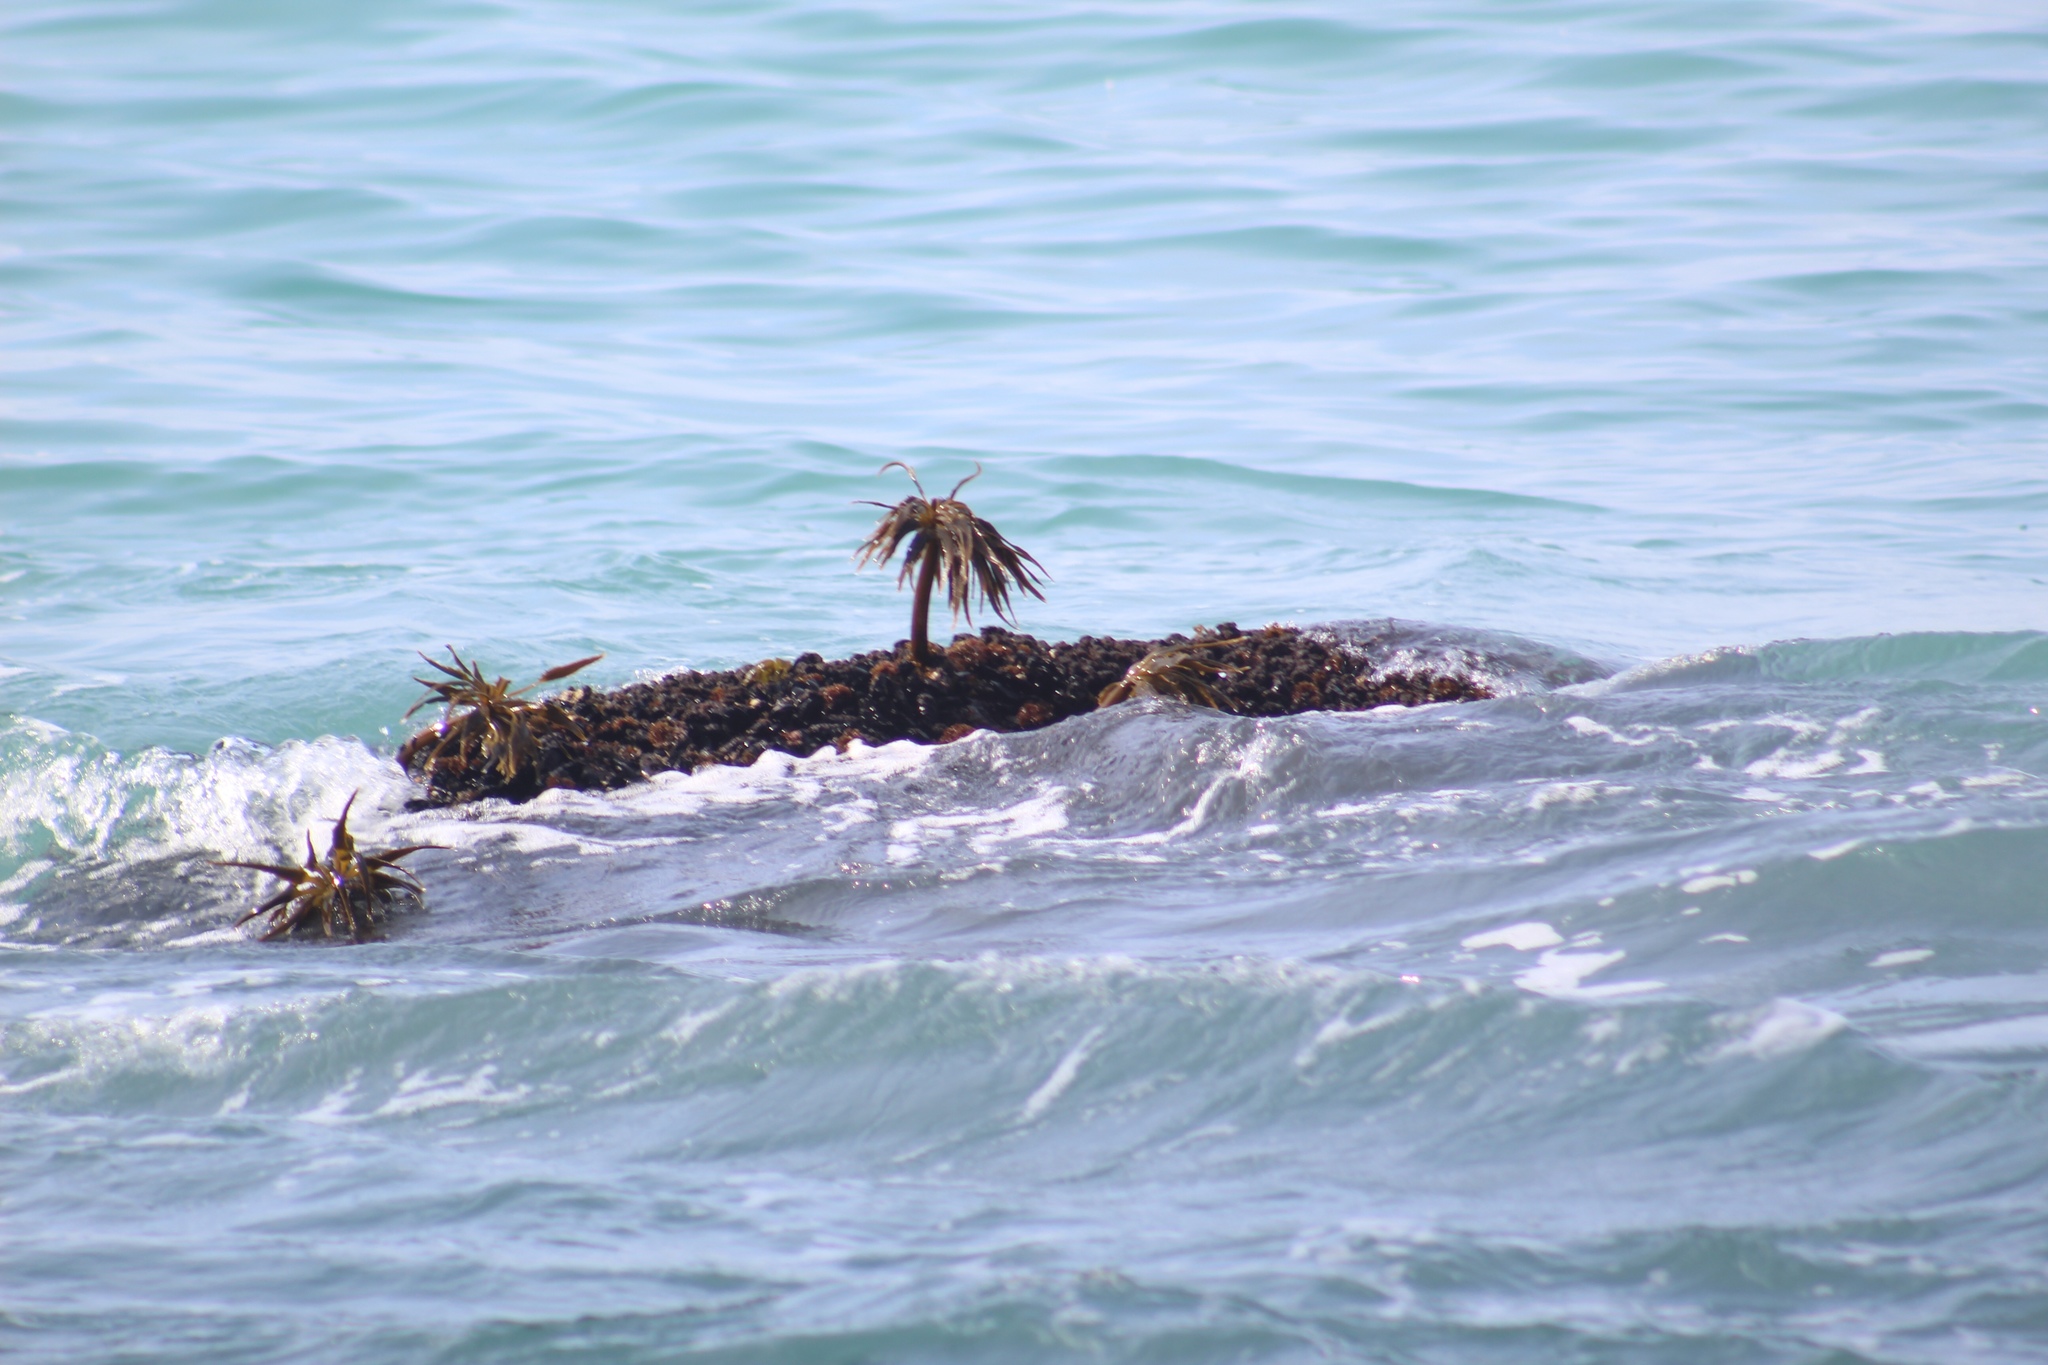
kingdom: Chromista
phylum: Ochrophyta
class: Phaeophyceae
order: Laminariales
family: Laminariaceae
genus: Postelsia
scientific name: Postelsia palmiformis
